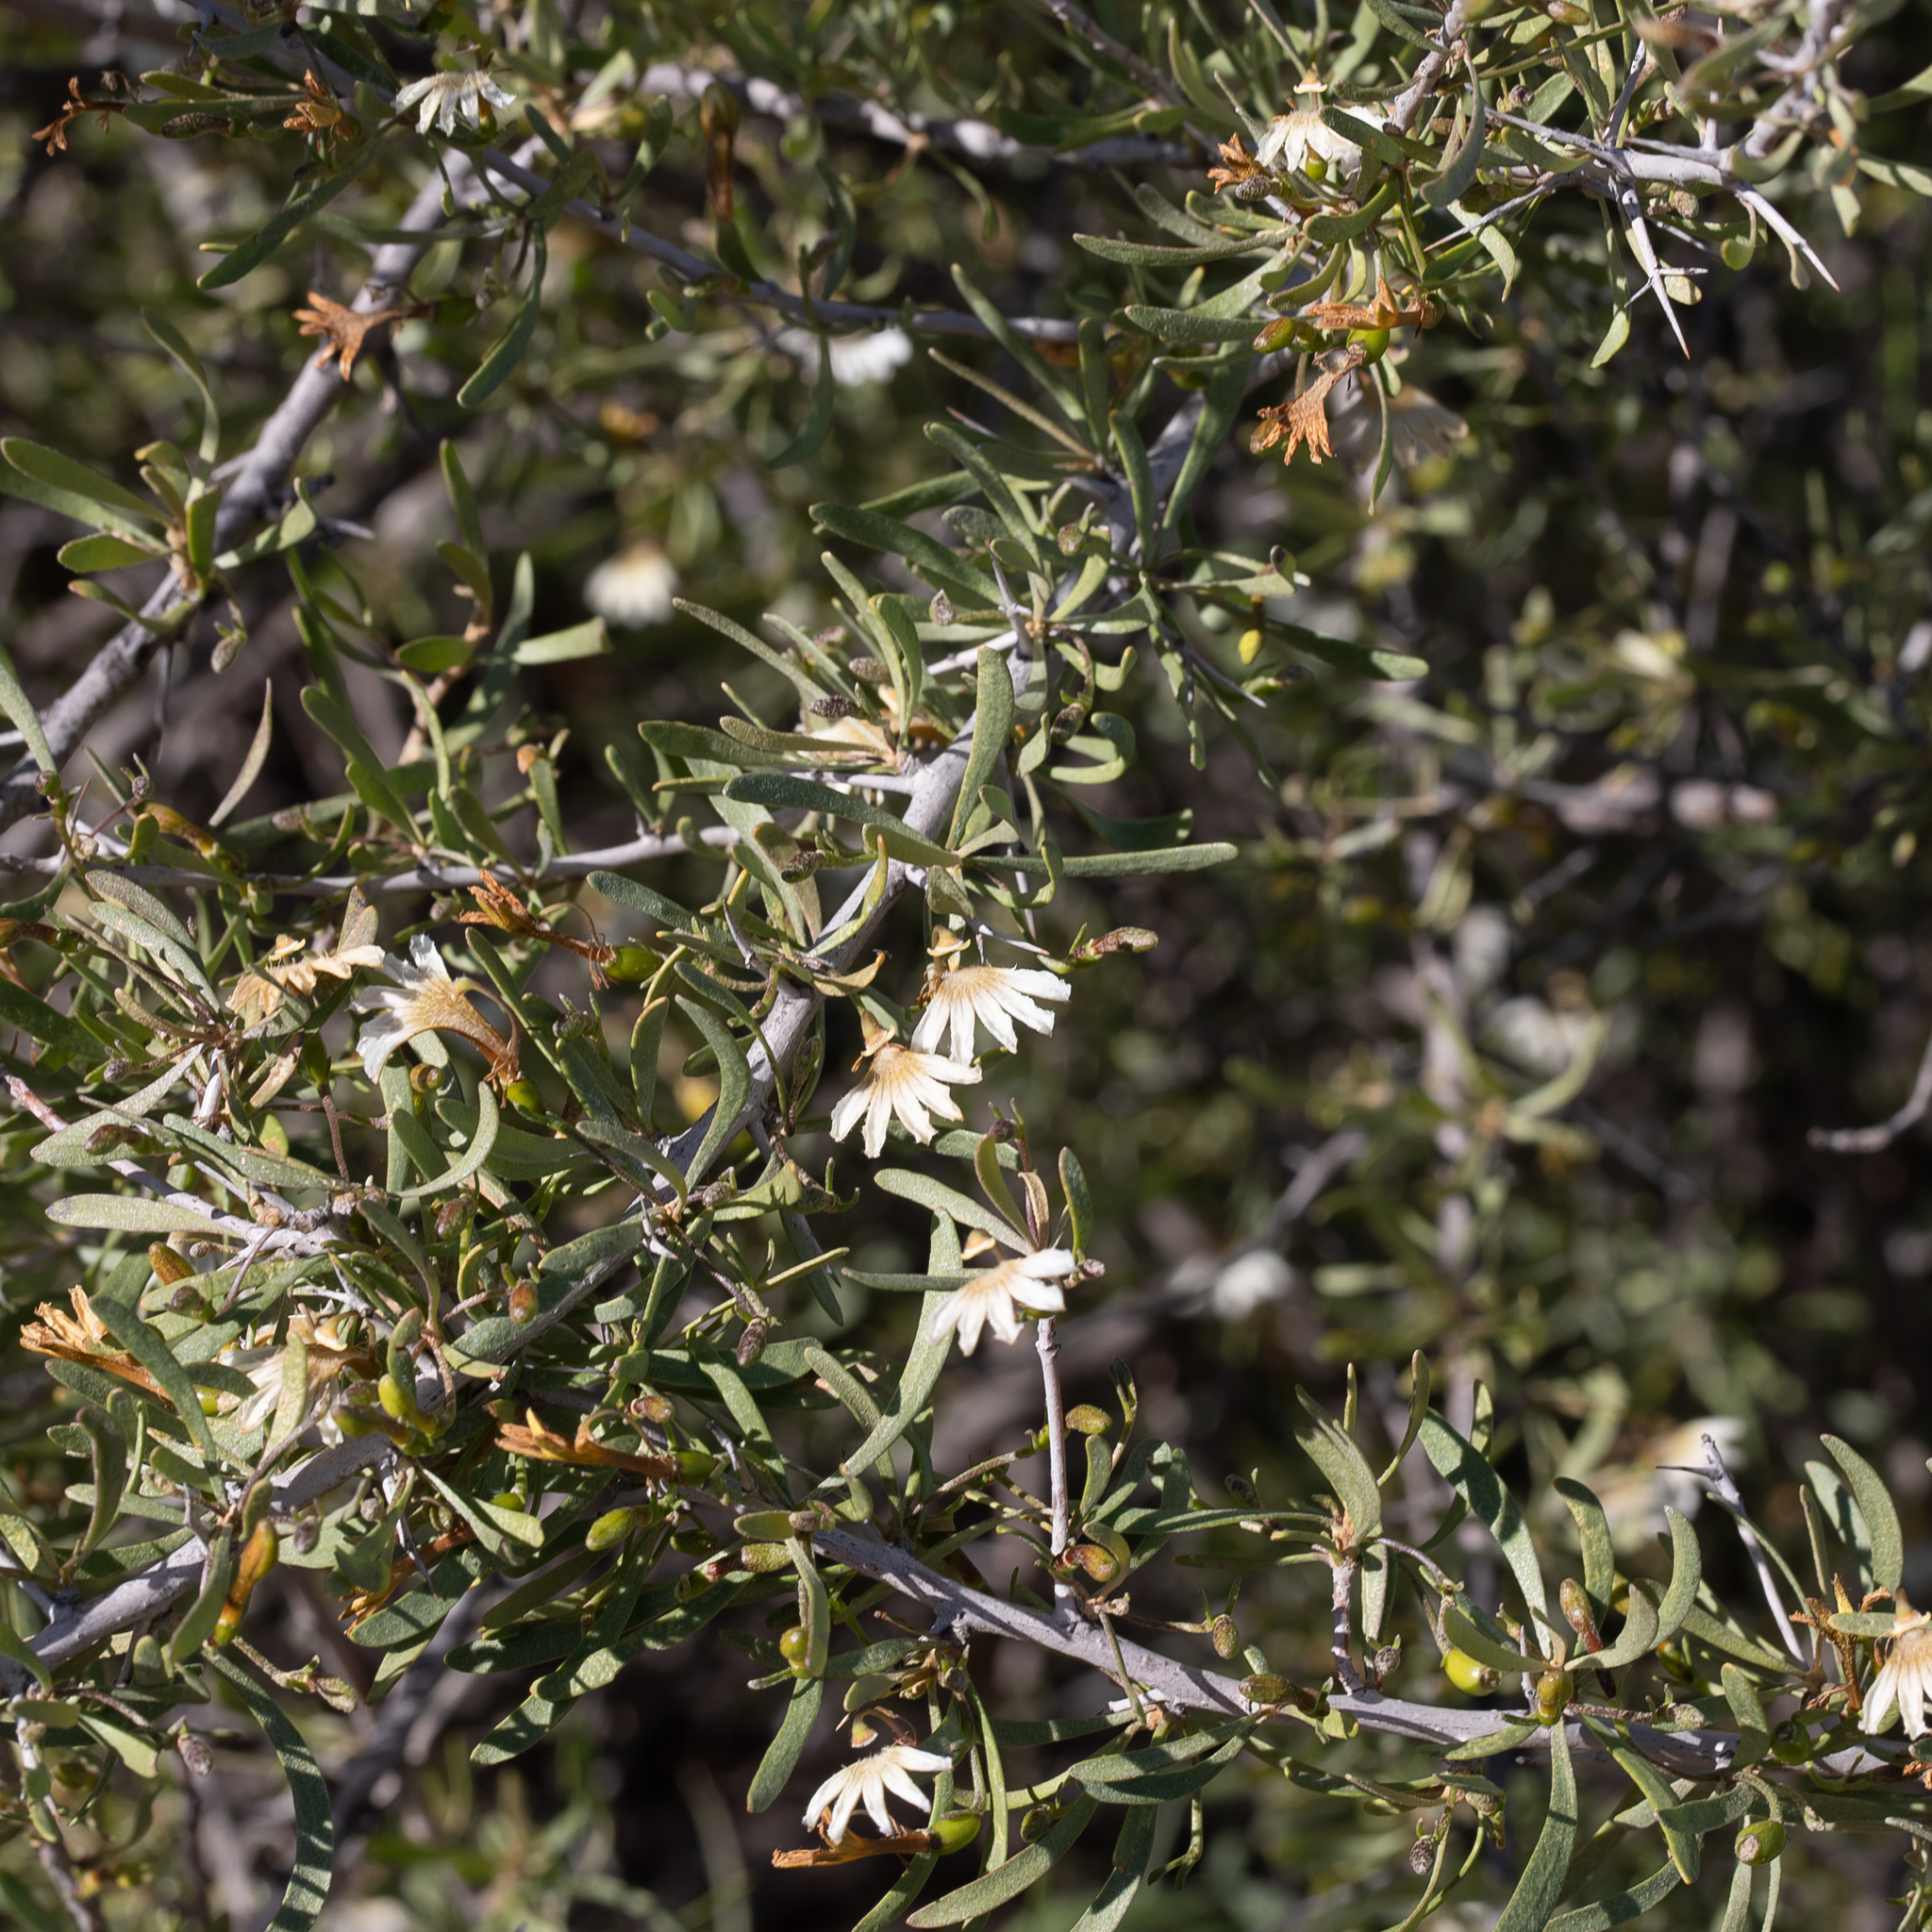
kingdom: Plantae
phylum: Tracheophyta
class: Magnoliopsida
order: Asterales
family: Goodeniaceae
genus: Scaevola
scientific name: Scaevola spinescens
